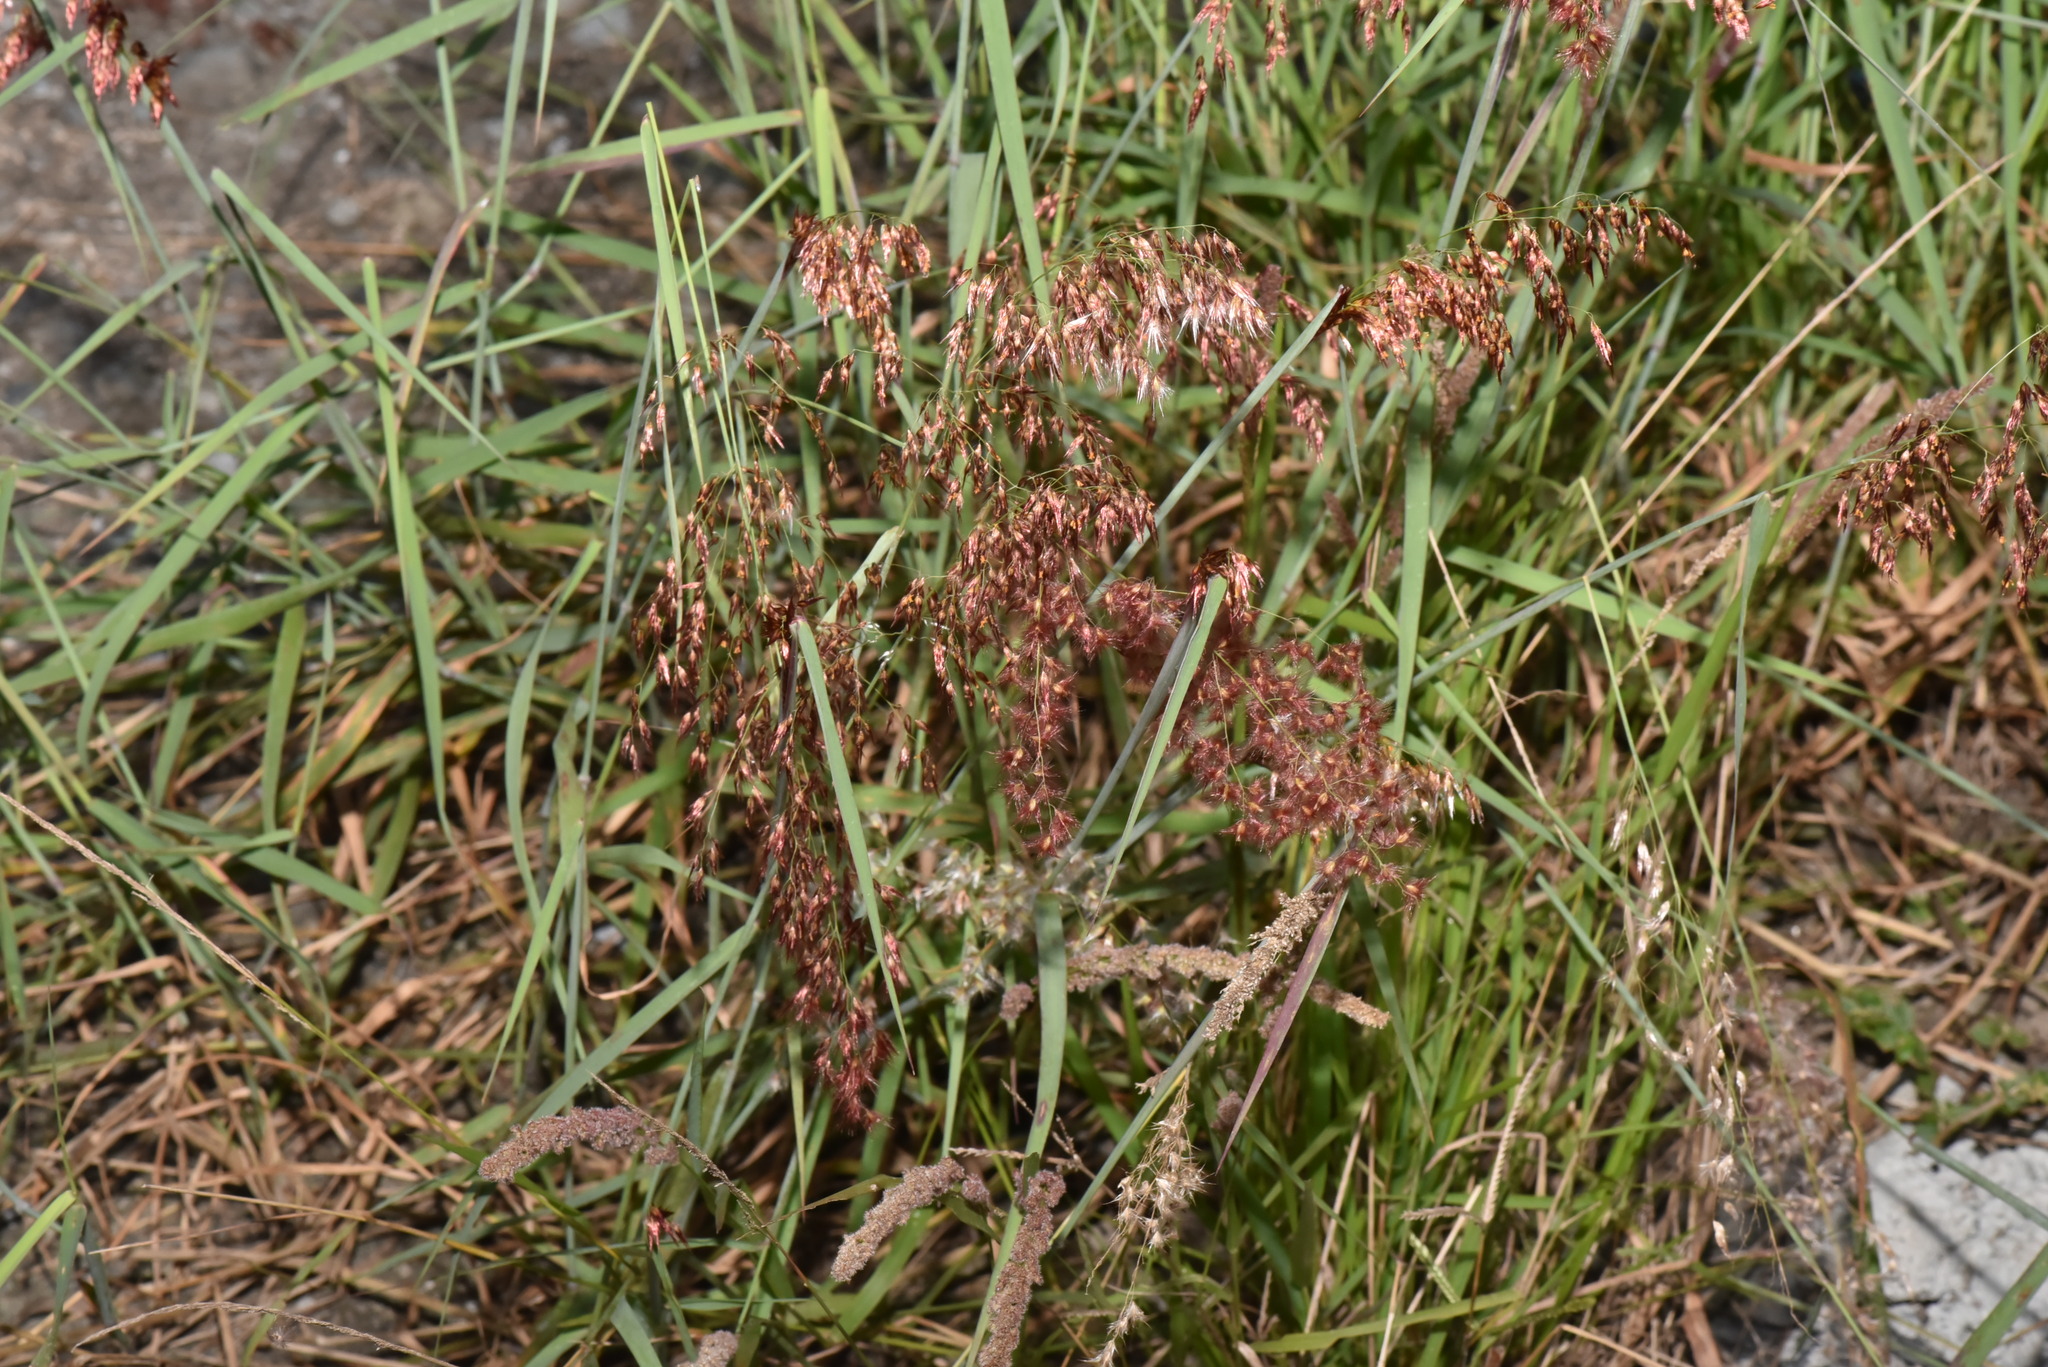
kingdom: Plantae
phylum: Tracheophyta
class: Liliopsida
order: Poales
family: Poaceae
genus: Melinis
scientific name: Melinis repens
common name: Rose natal grass
